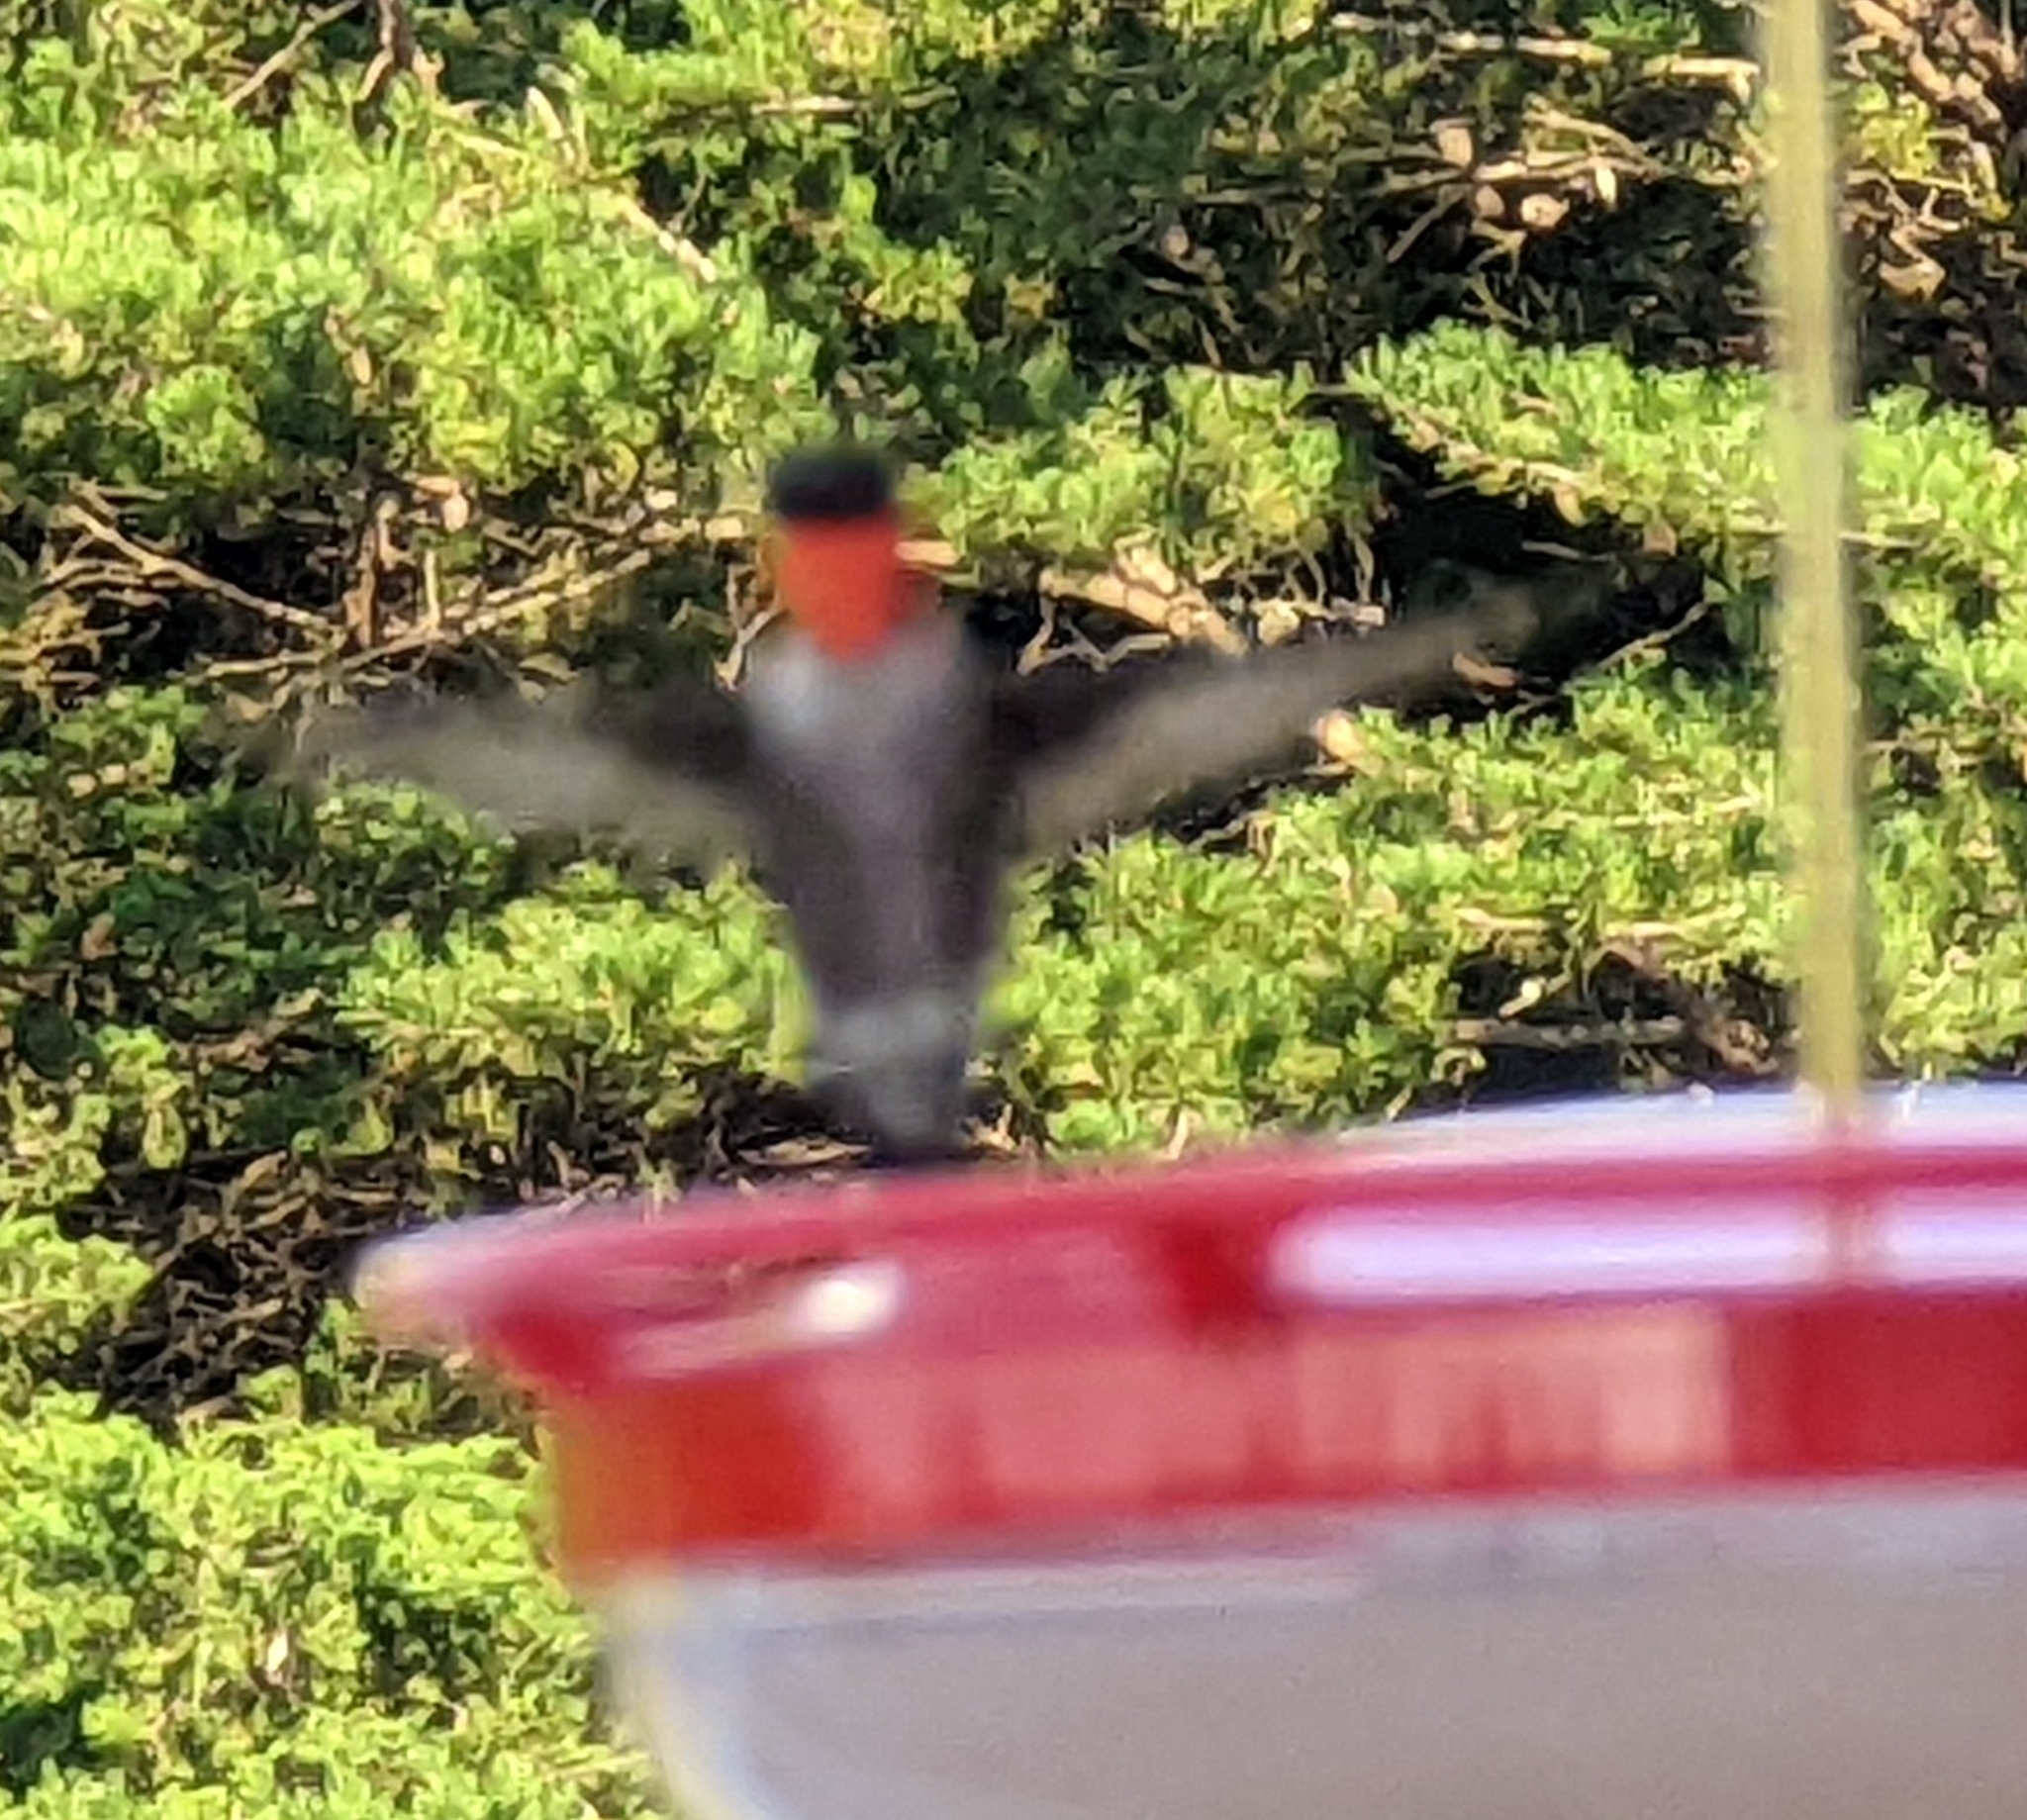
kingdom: Animalia
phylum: Chordata
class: Aves
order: Apodiformes
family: Trochilidae
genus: Archilochus
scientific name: Archilochus colubris
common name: Ruby-throated hummingbird
